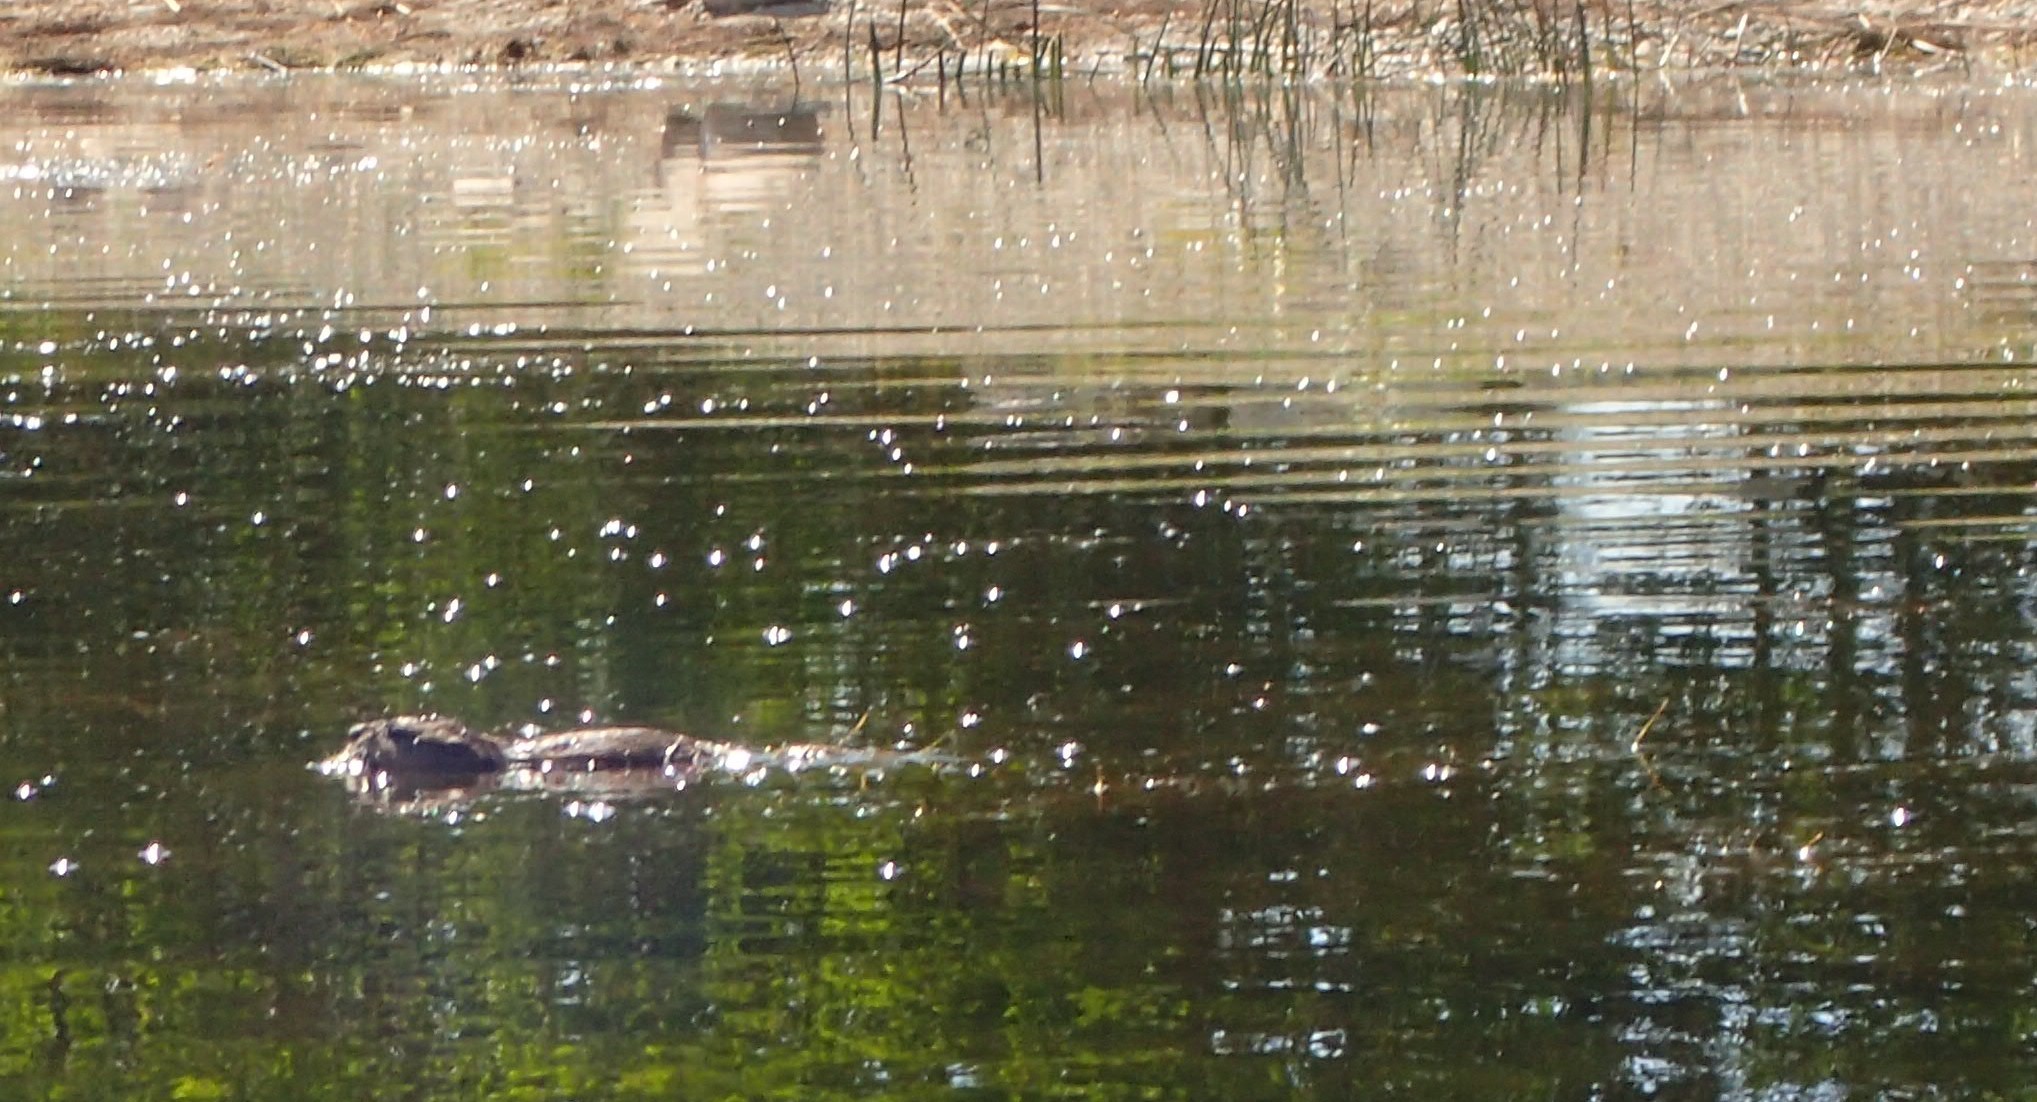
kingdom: Animalia
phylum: Chordata
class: Mammalia
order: Rodentia
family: Cricetidae
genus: Ondatra
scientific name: Ondatra zibethicus
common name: Muskrat
